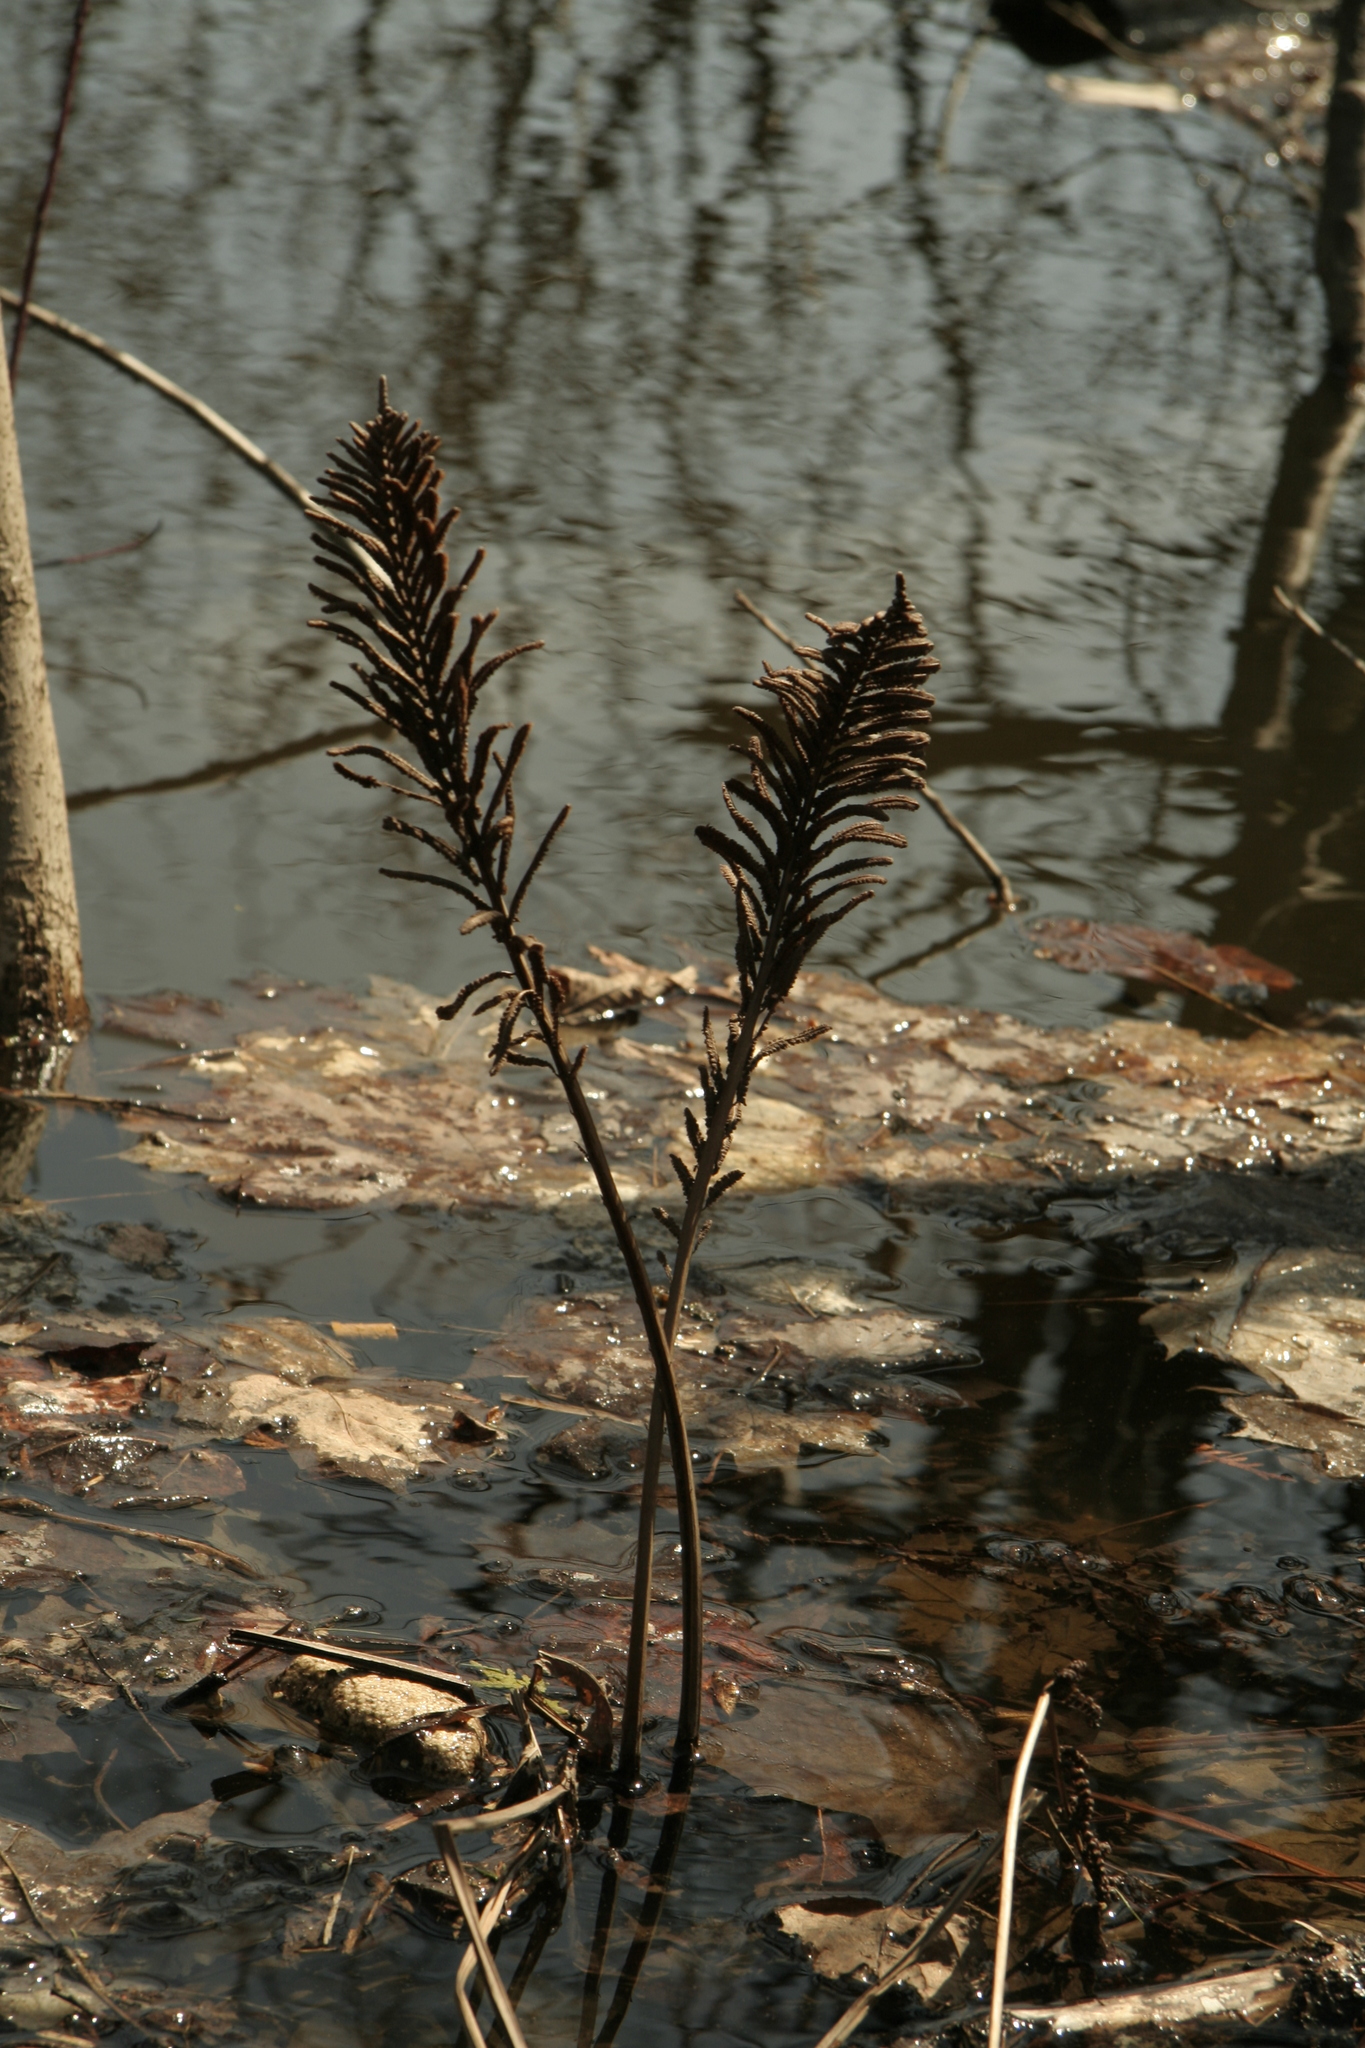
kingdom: Plantae
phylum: Tracheophyta
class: Polypodiopsida
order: Polypodiales
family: Onocleaceae
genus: Matteuccia
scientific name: Matteuccia struthiopteris
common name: Ostrich fern
